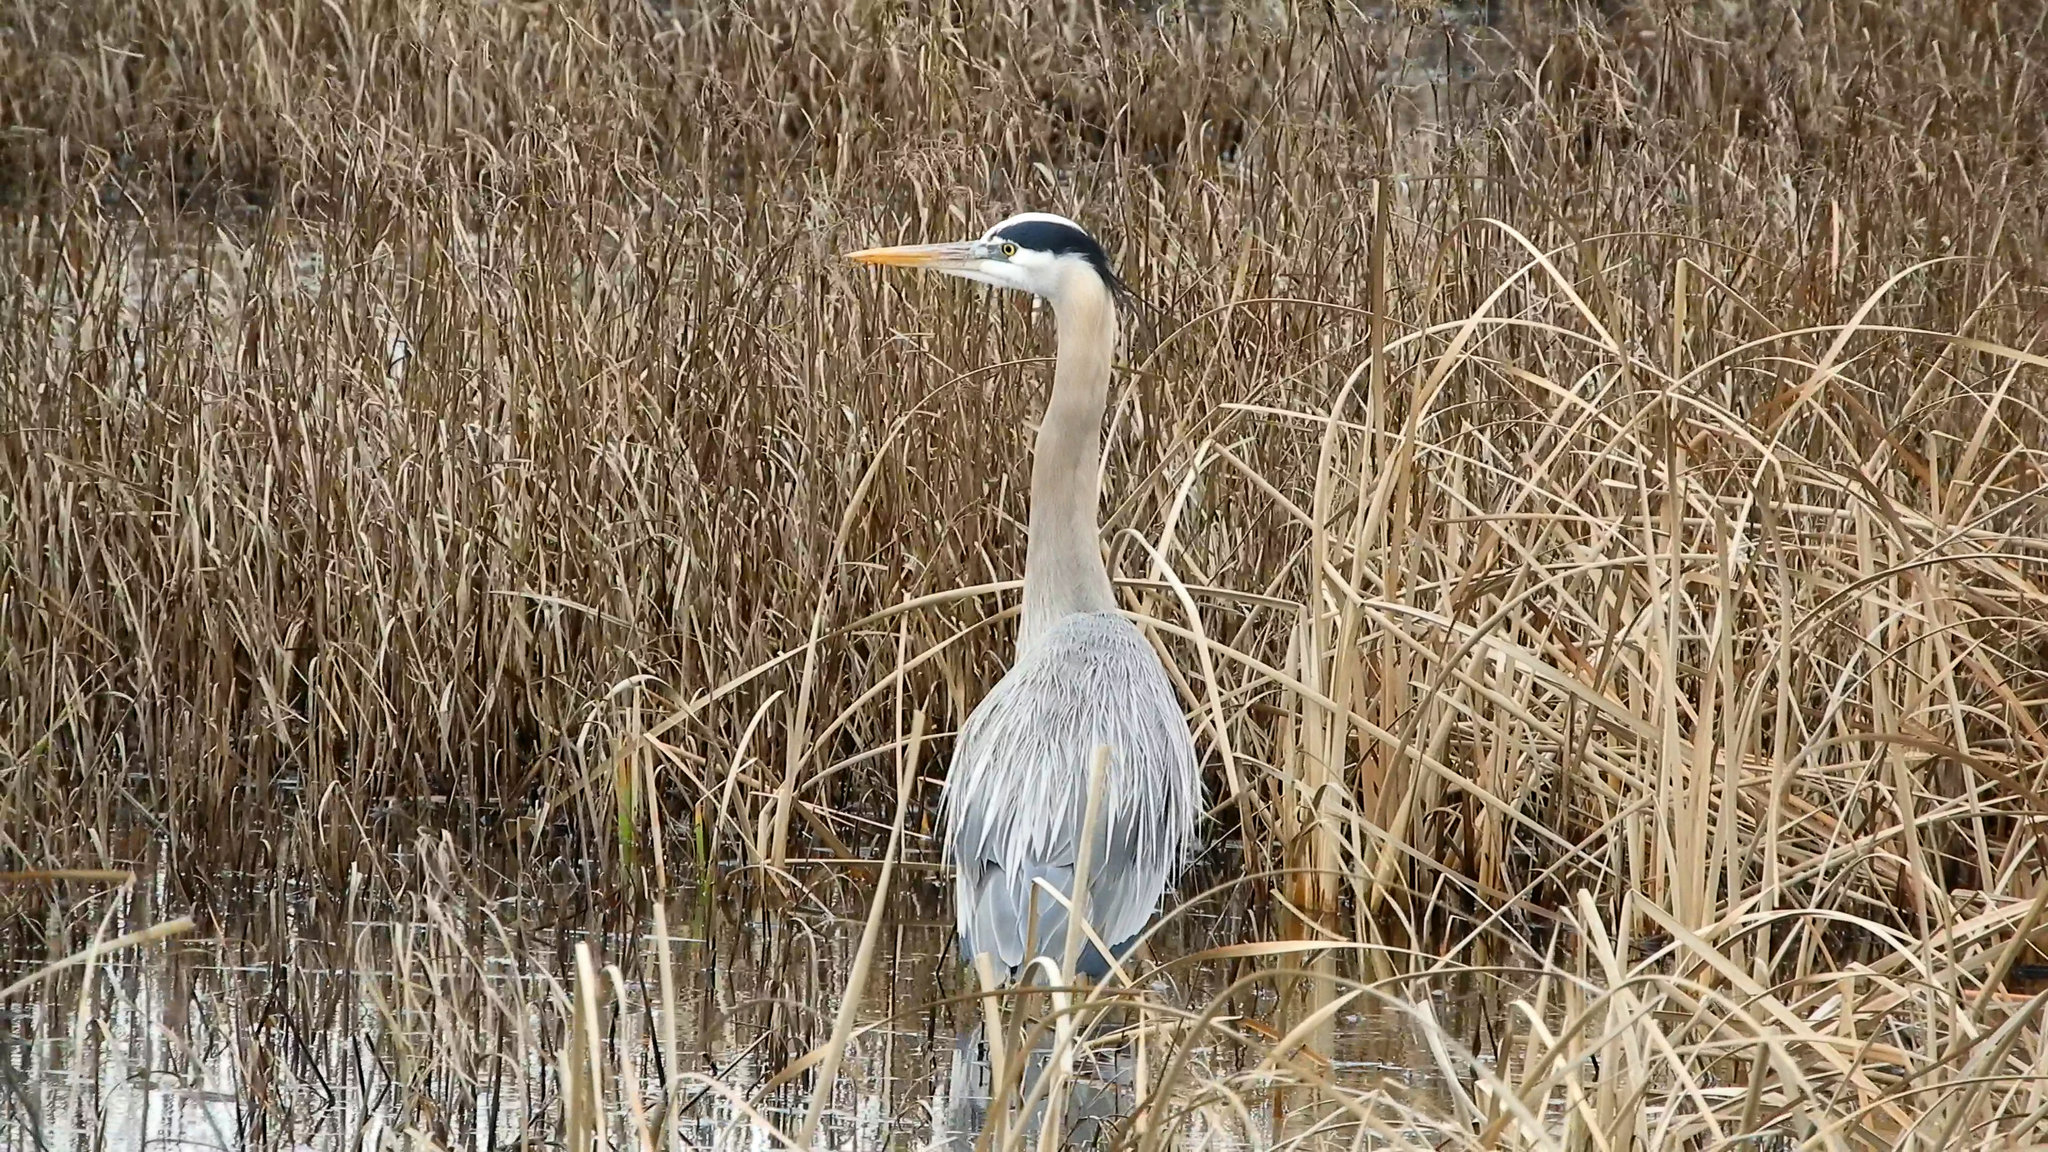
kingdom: Animalia
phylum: Chordata
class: Aves
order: Pelecaniformes
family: Ardeidae
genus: Ardea
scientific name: Ardea herodias
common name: Great blue heron
